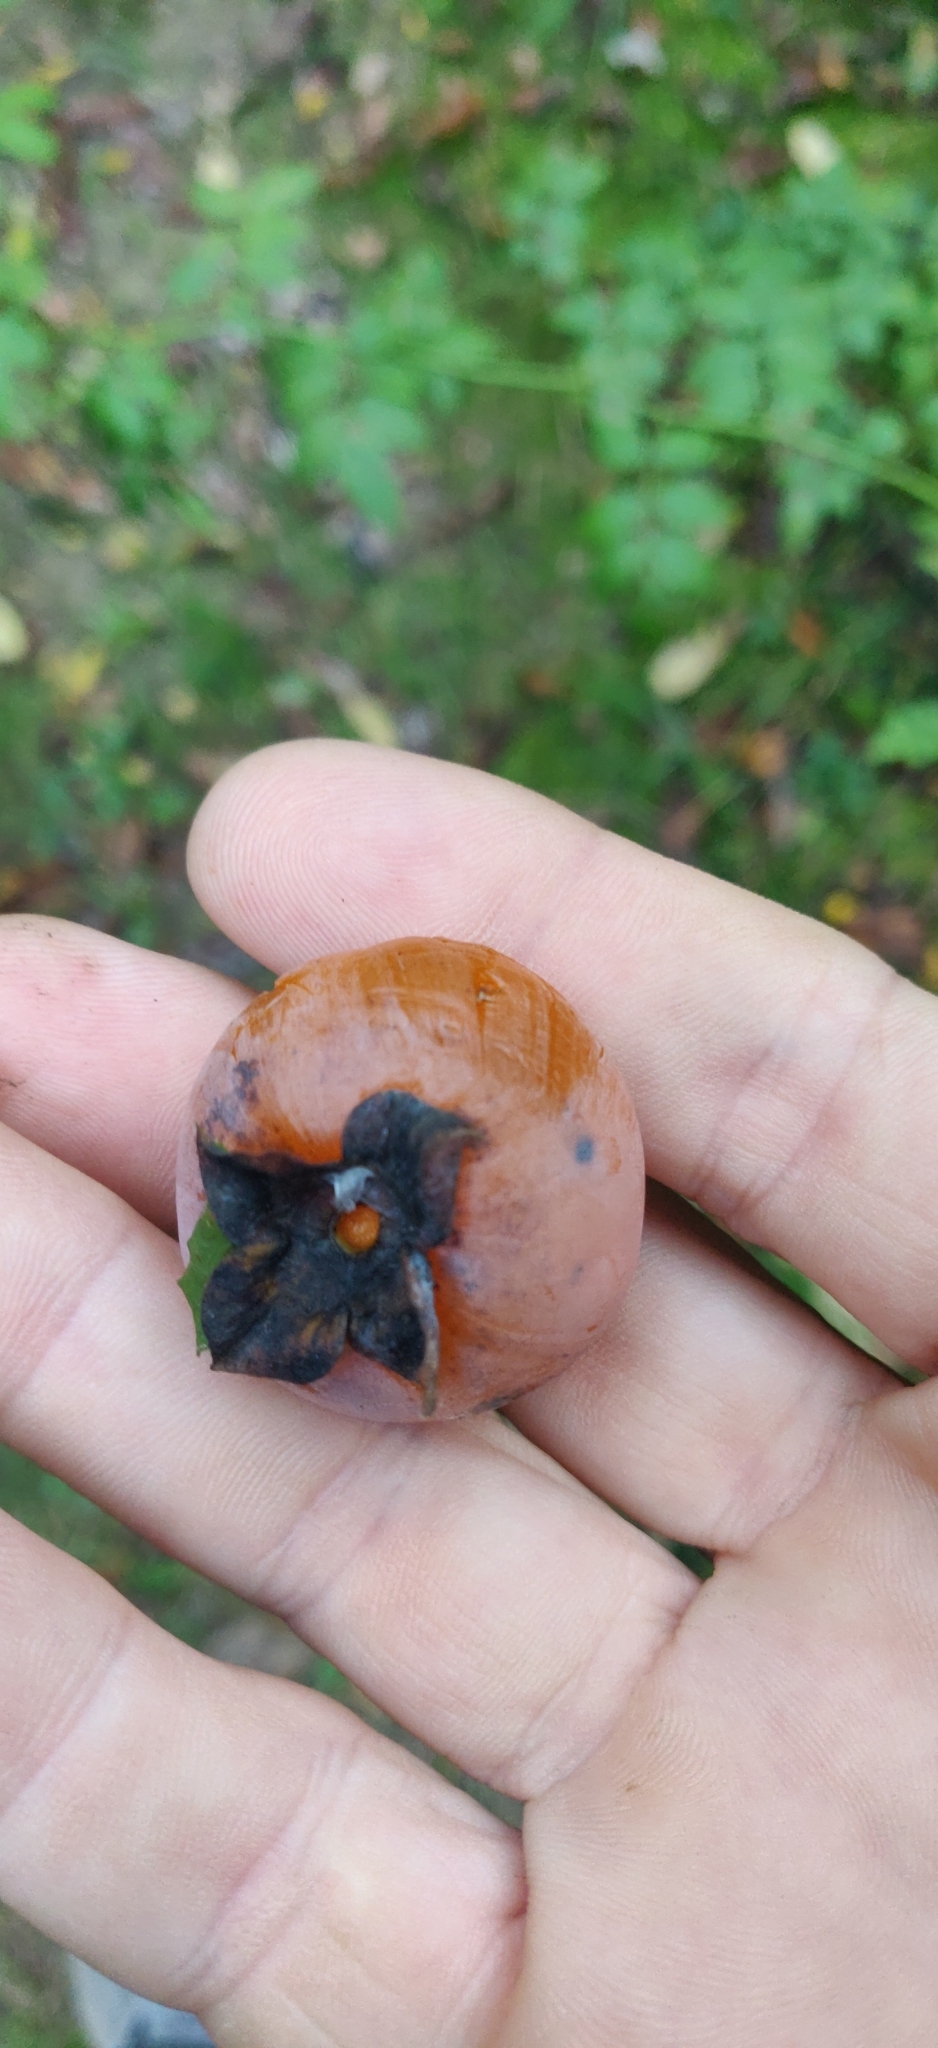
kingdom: Plantae
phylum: Tracheophyta
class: Magnoliopsida
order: Ericales
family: Ebenaceae
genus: Diospyros
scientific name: Diospyros virginiana
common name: Persimmon
